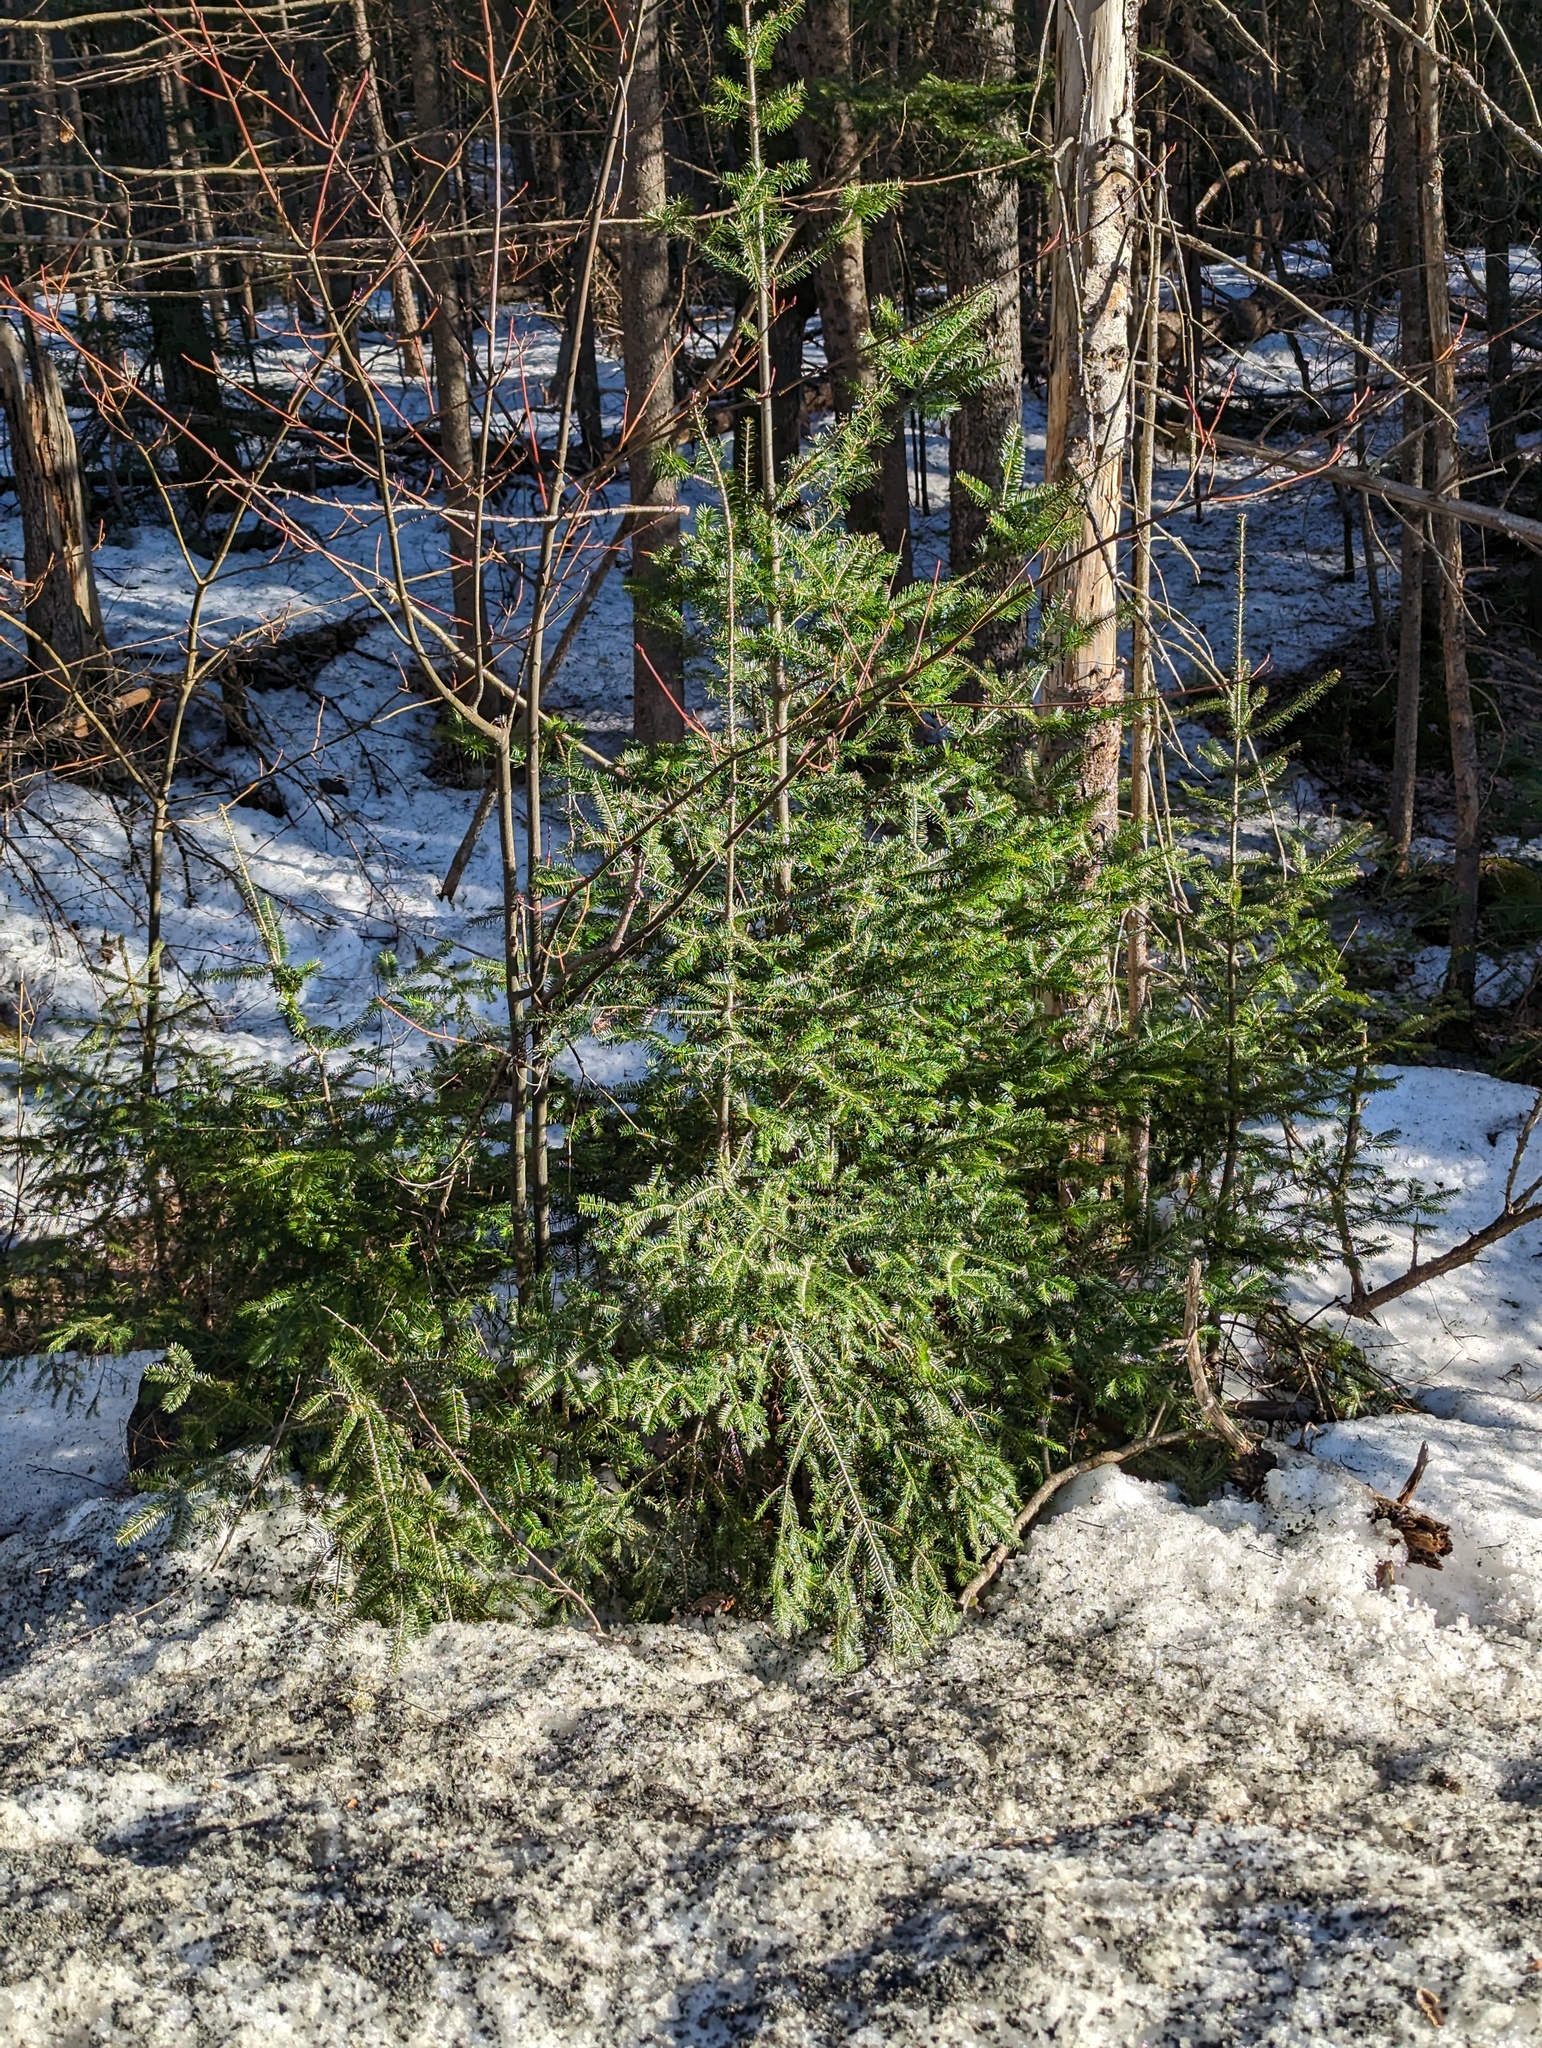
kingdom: Plantae
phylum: Tracheophyta
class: Pinopsida
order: Pinales
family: Pinaceae
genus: Abies
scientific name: Abies balsamea
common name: Balsam fir
